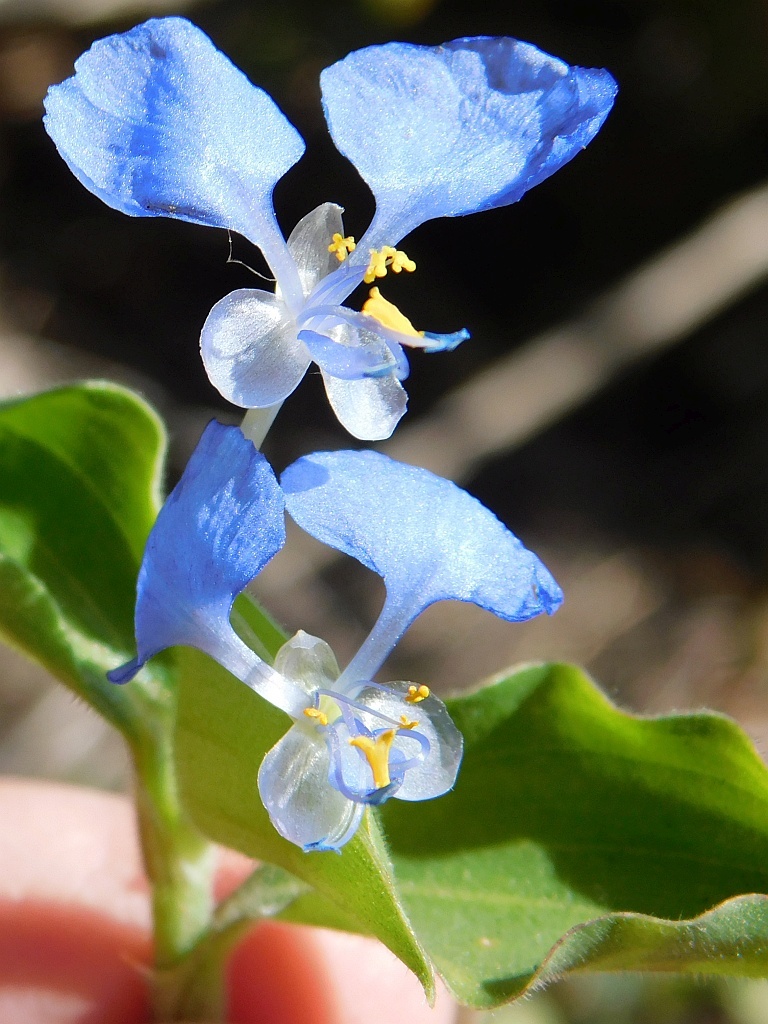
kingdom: Plantae
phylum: Tracheophyta
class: Liliopsida
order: Commelinales
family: Commelinaceae
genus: Commelina
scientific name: Commelina benghalensis
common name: Jio
